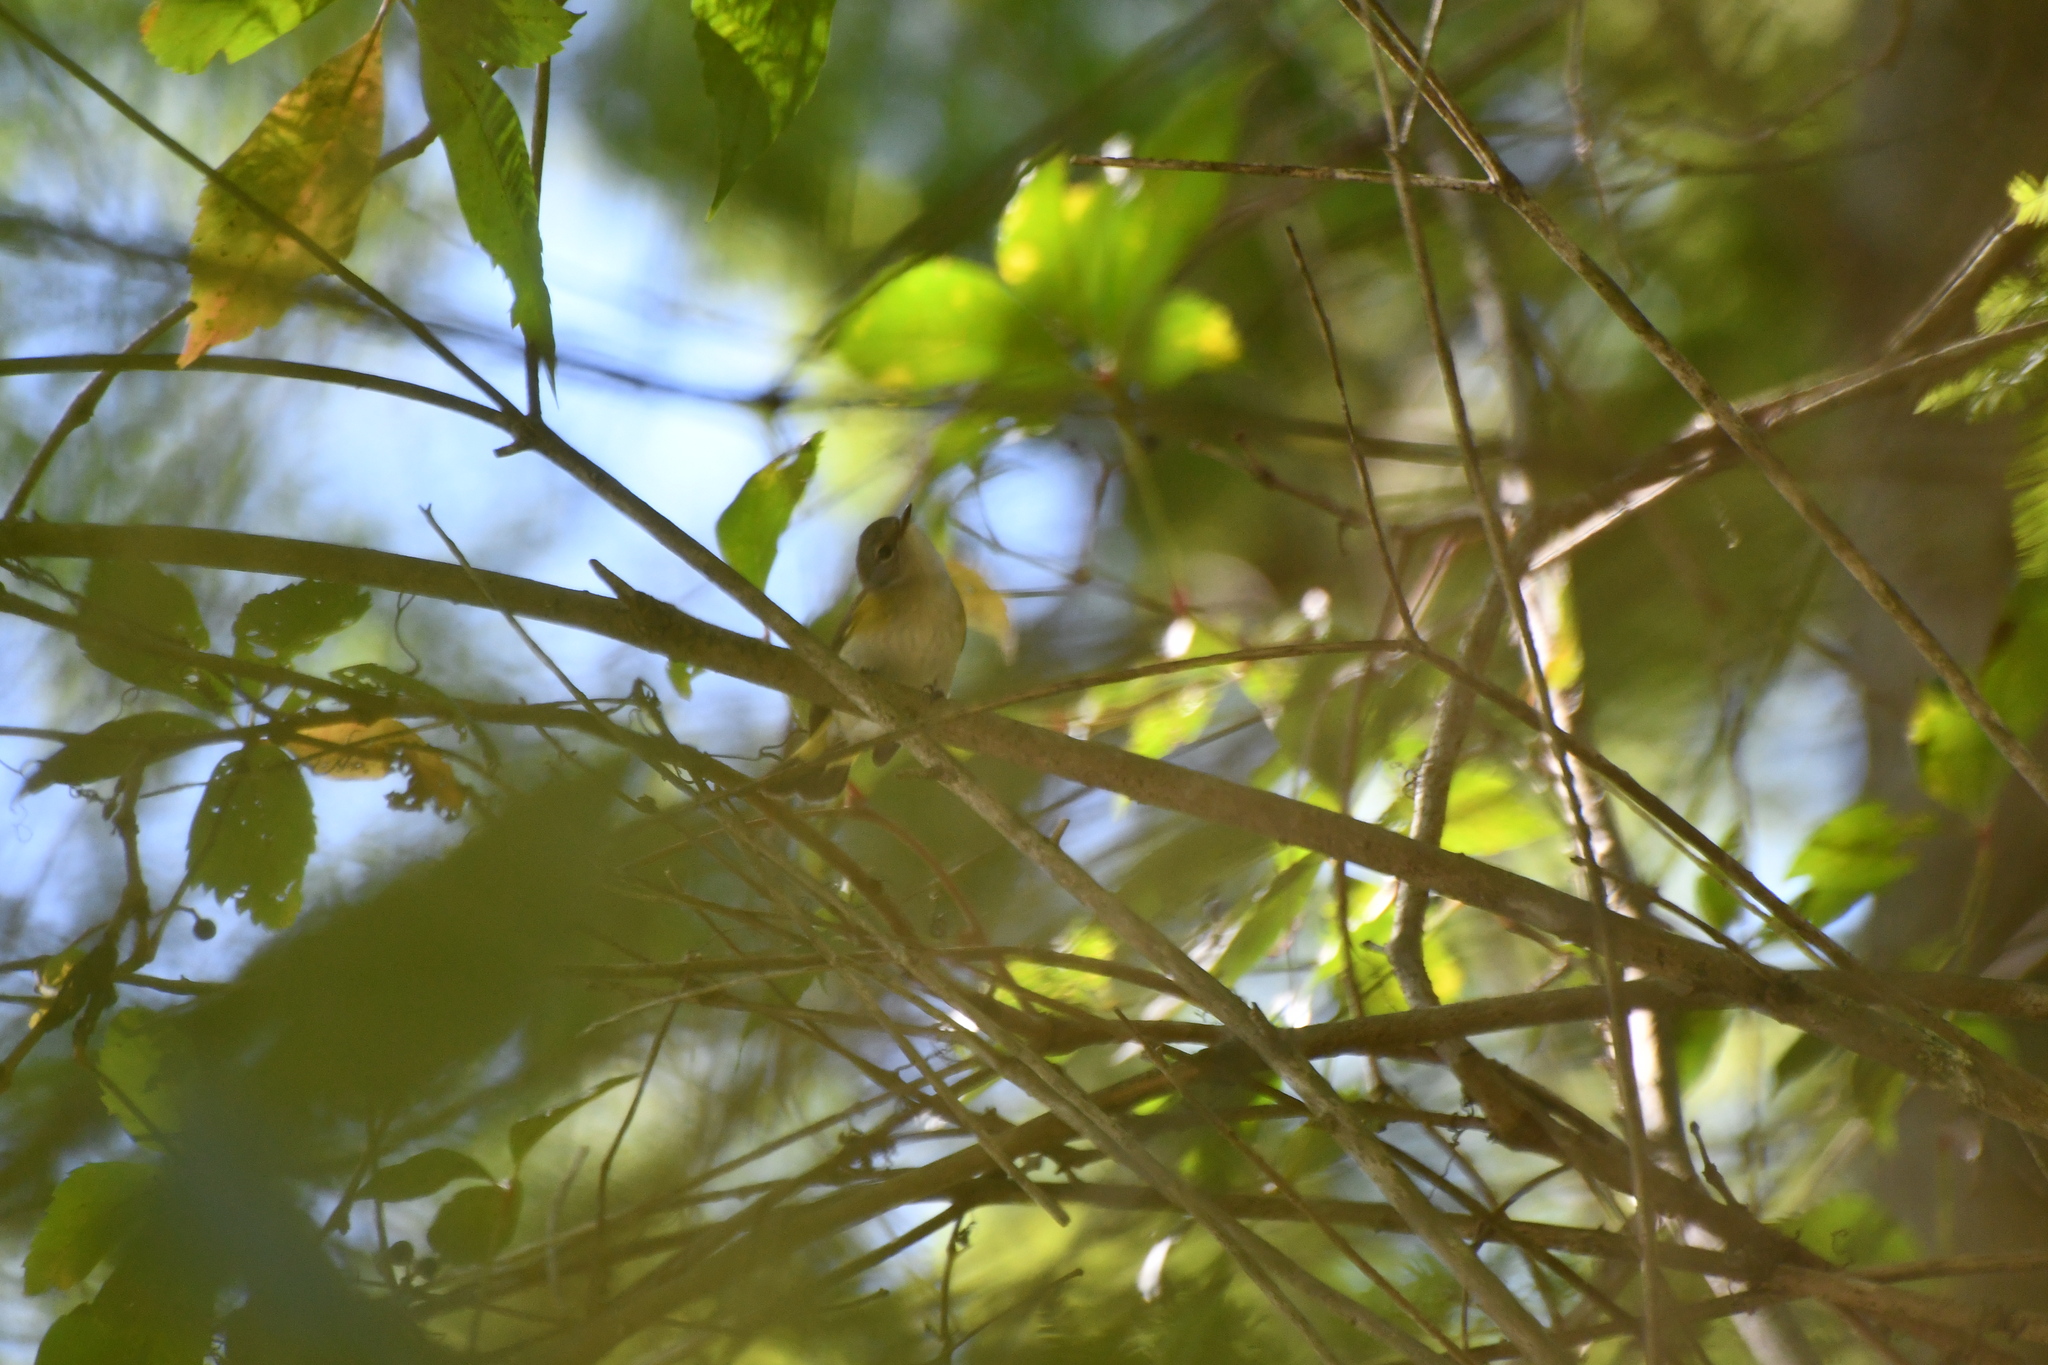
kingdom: Animalia
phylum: Chordata
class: Aves
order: Passeriformes
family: Parulidae
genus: Setophaga
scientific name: Setophaga ruticilla
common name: American redstart
